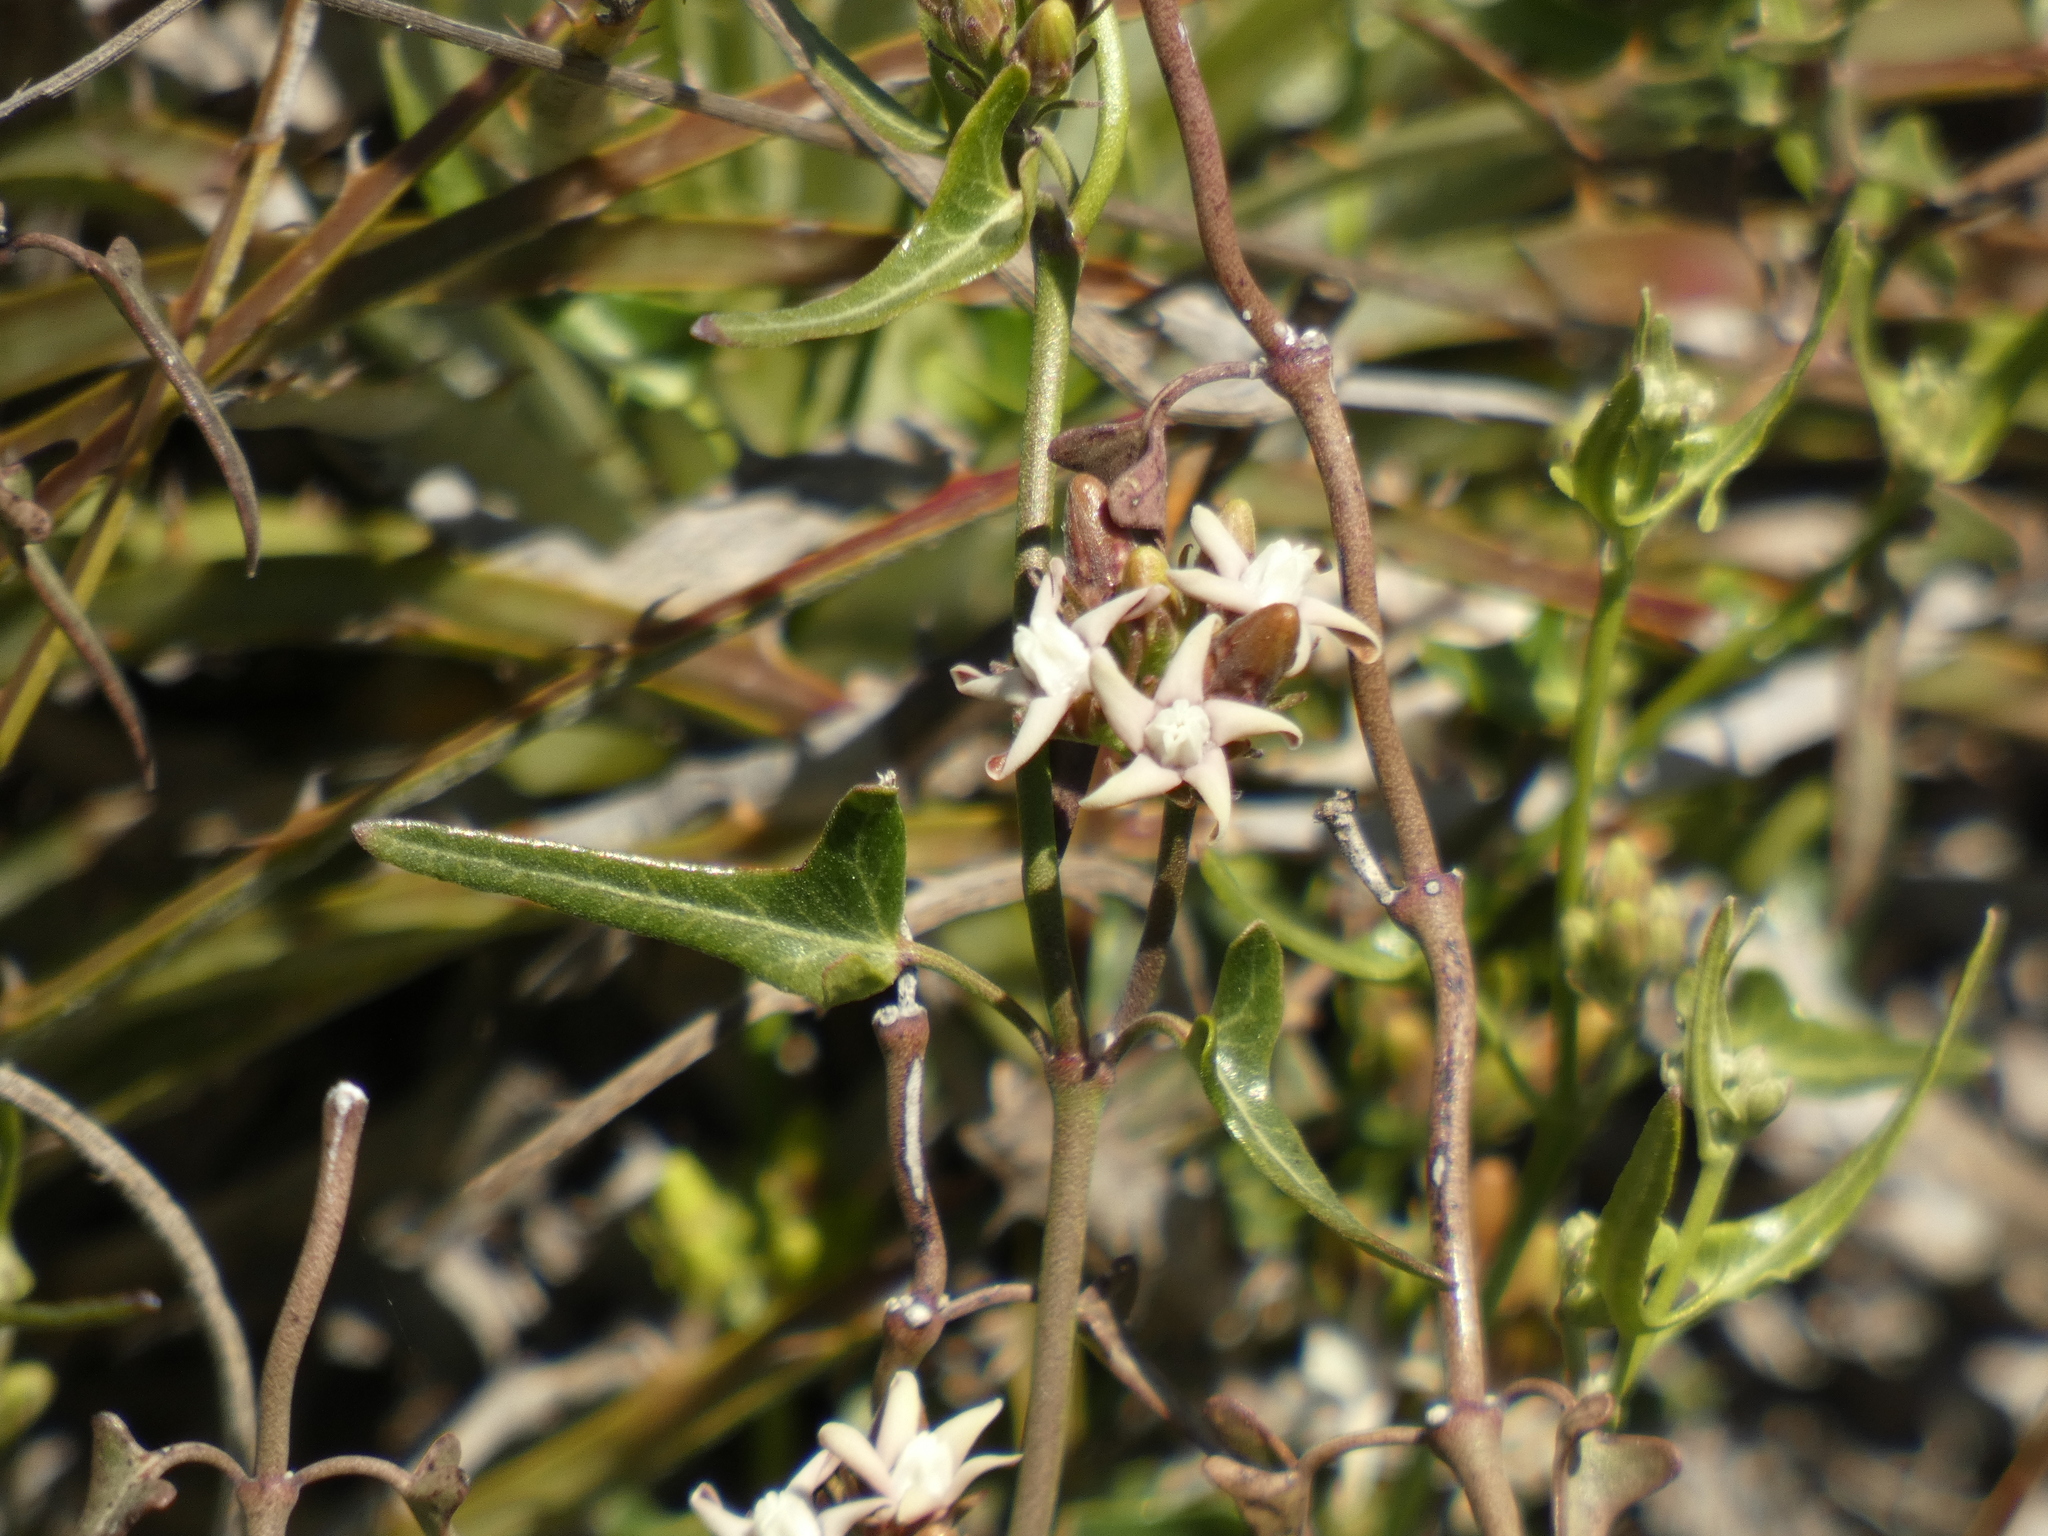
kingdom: Plantae
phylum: Tracheophyta
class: Magnoliopsida
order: Gentianales
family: Apocynaceae
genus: Tweedia
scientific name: Tweedia birostrata
